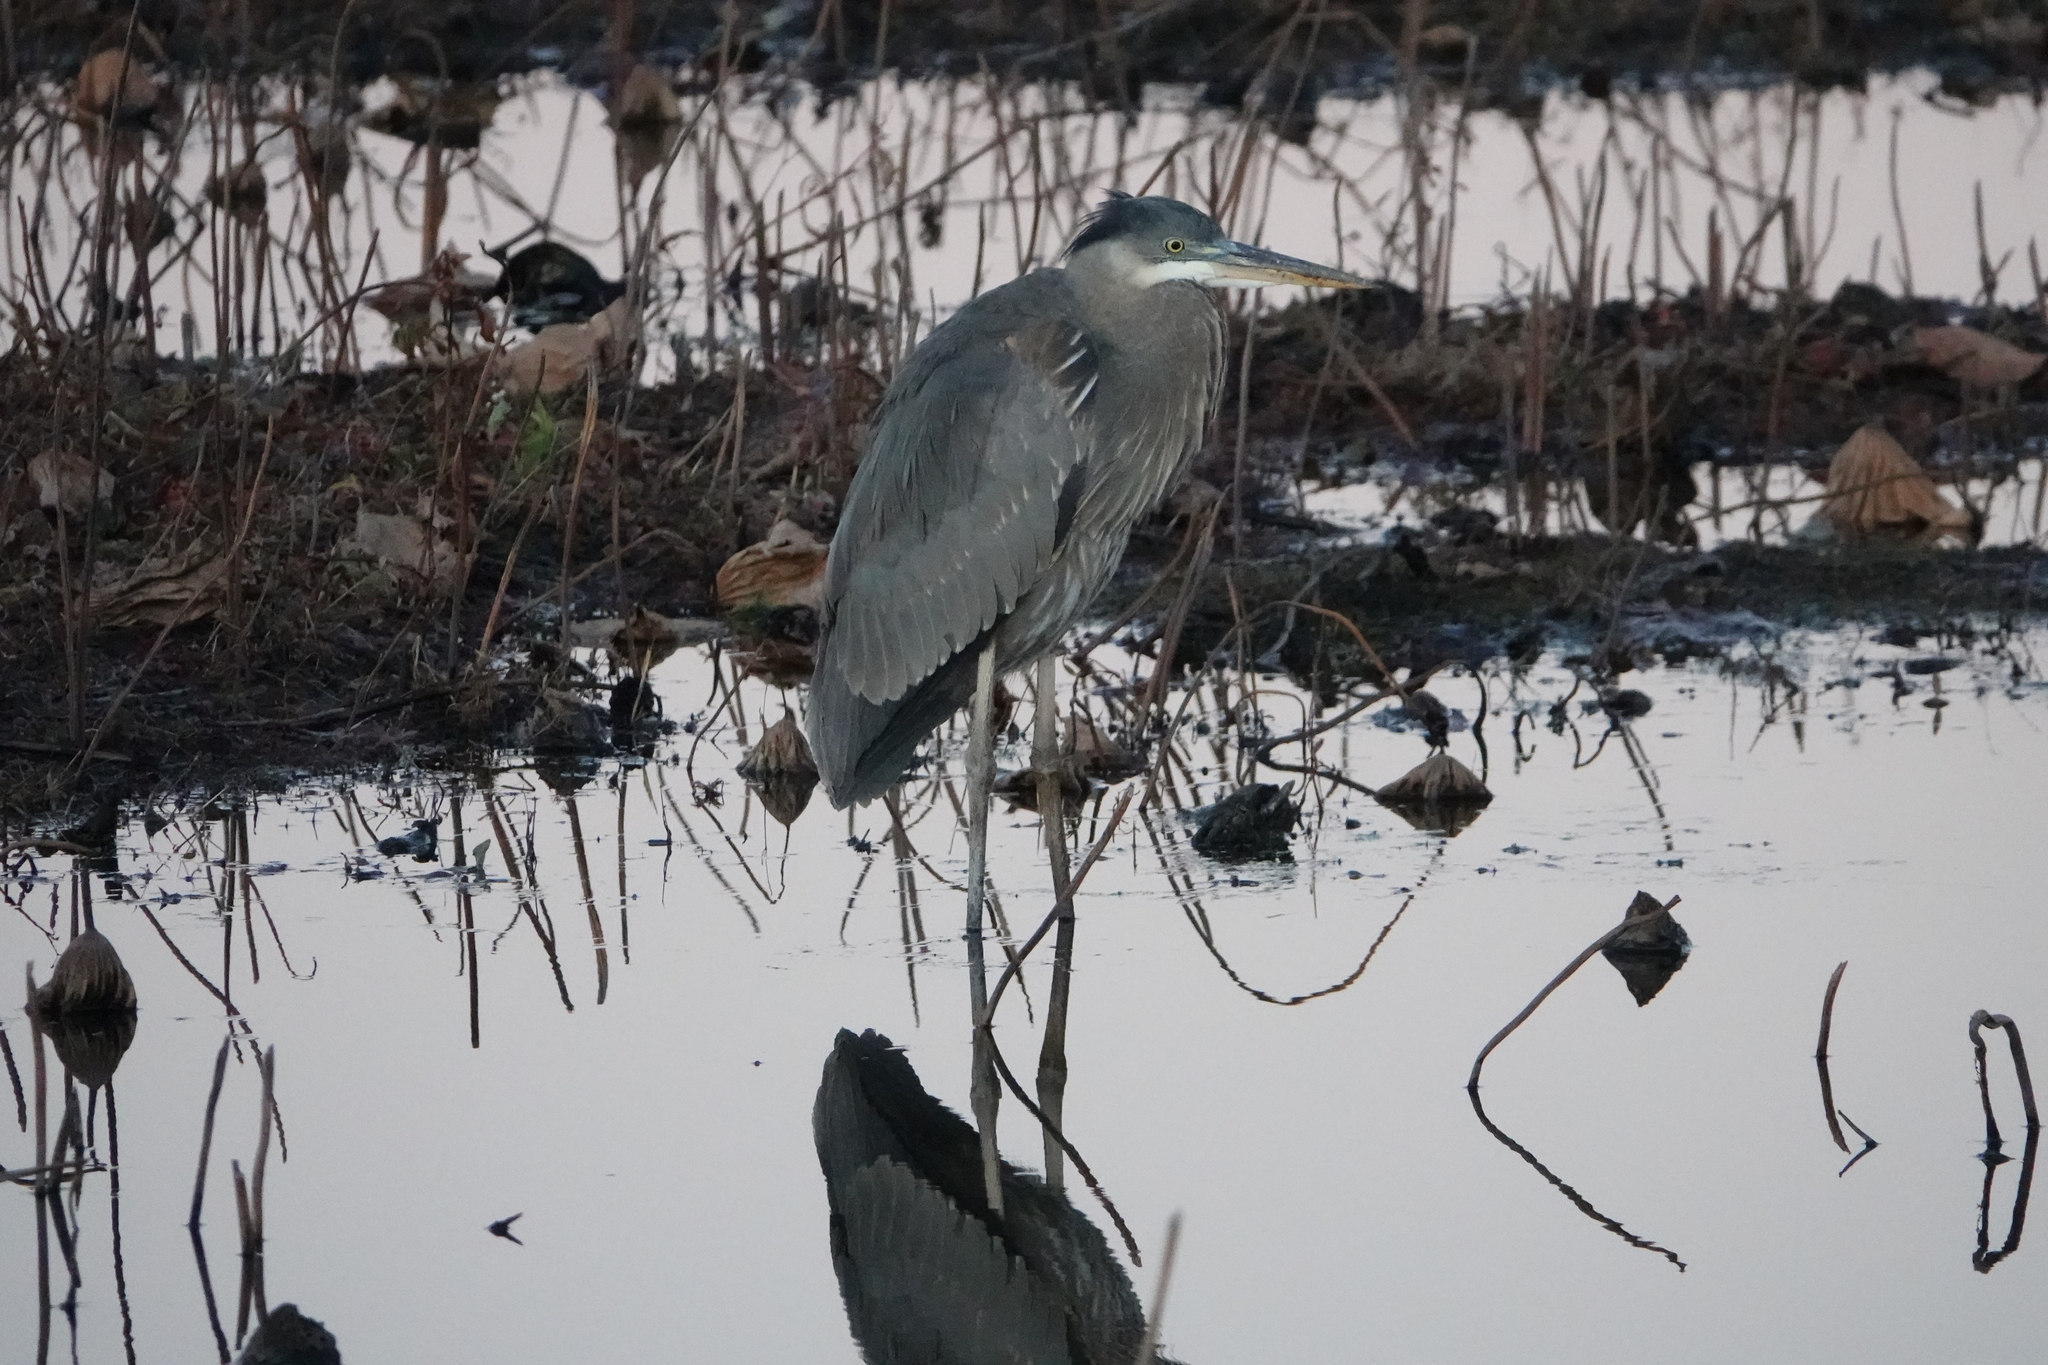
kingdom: Animalia
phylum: Chordata
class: Aves
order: Pelecaniformes
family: Ardeidae
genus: Ardea
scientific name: Ardea herodias
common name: Great blue heron
